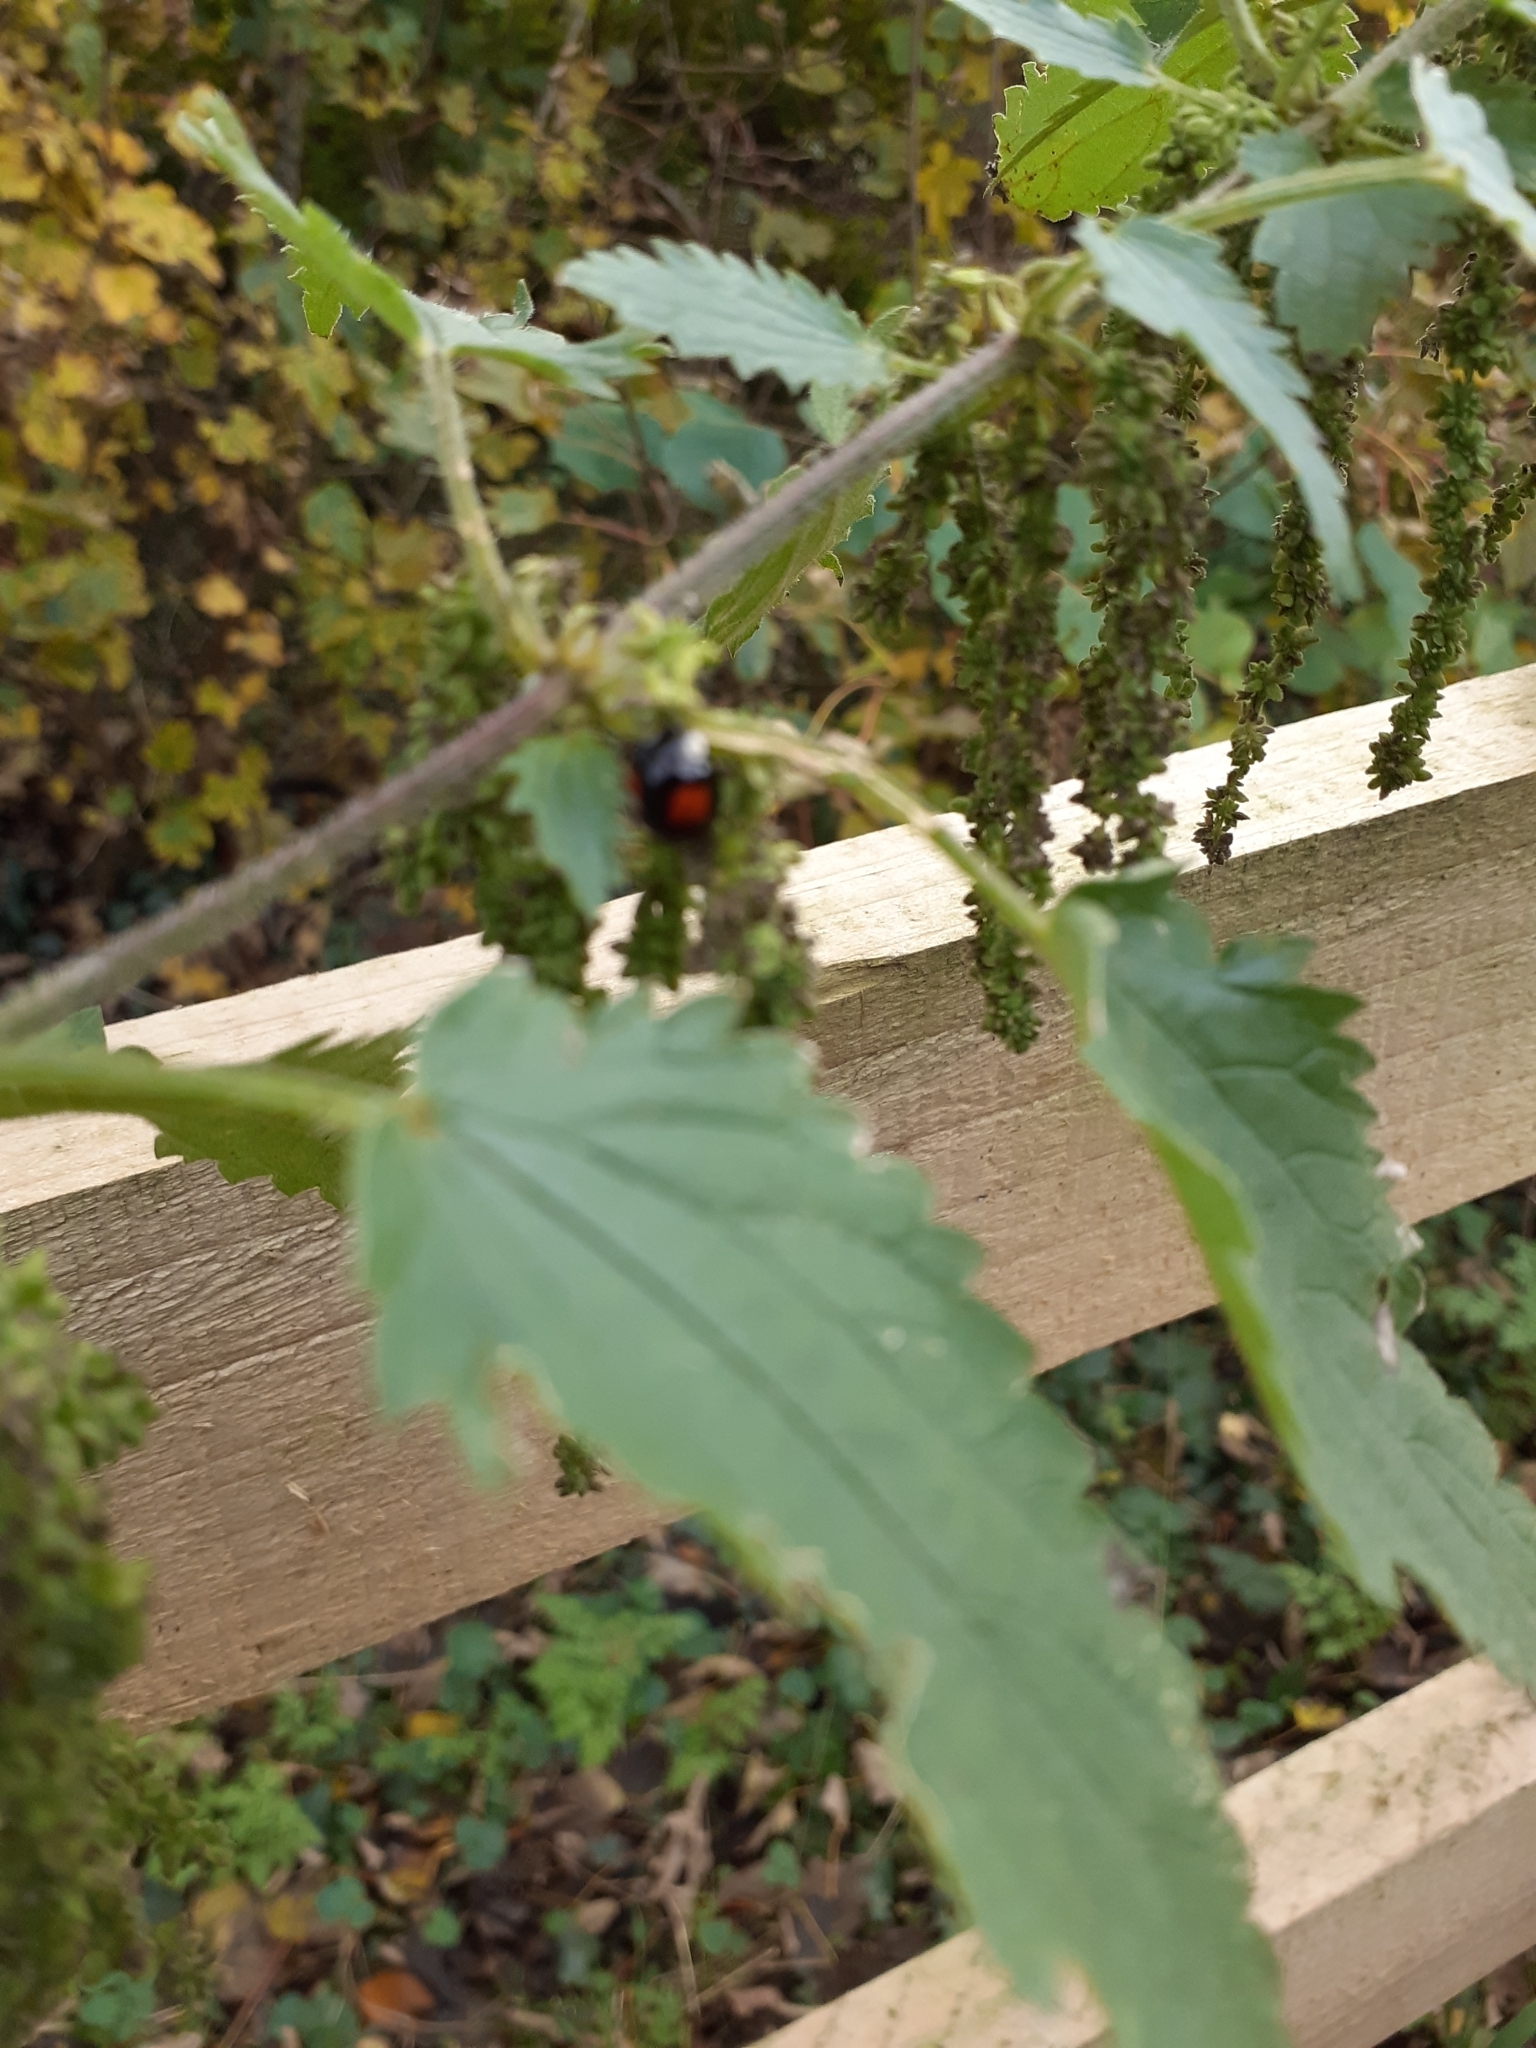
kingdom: Animalia
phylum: Arthropoda
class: Insecta
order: Coleoptera
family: Coccinellidae
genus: Harmonia
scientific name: Harmonia axyridis
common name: Harlequin ladybird
